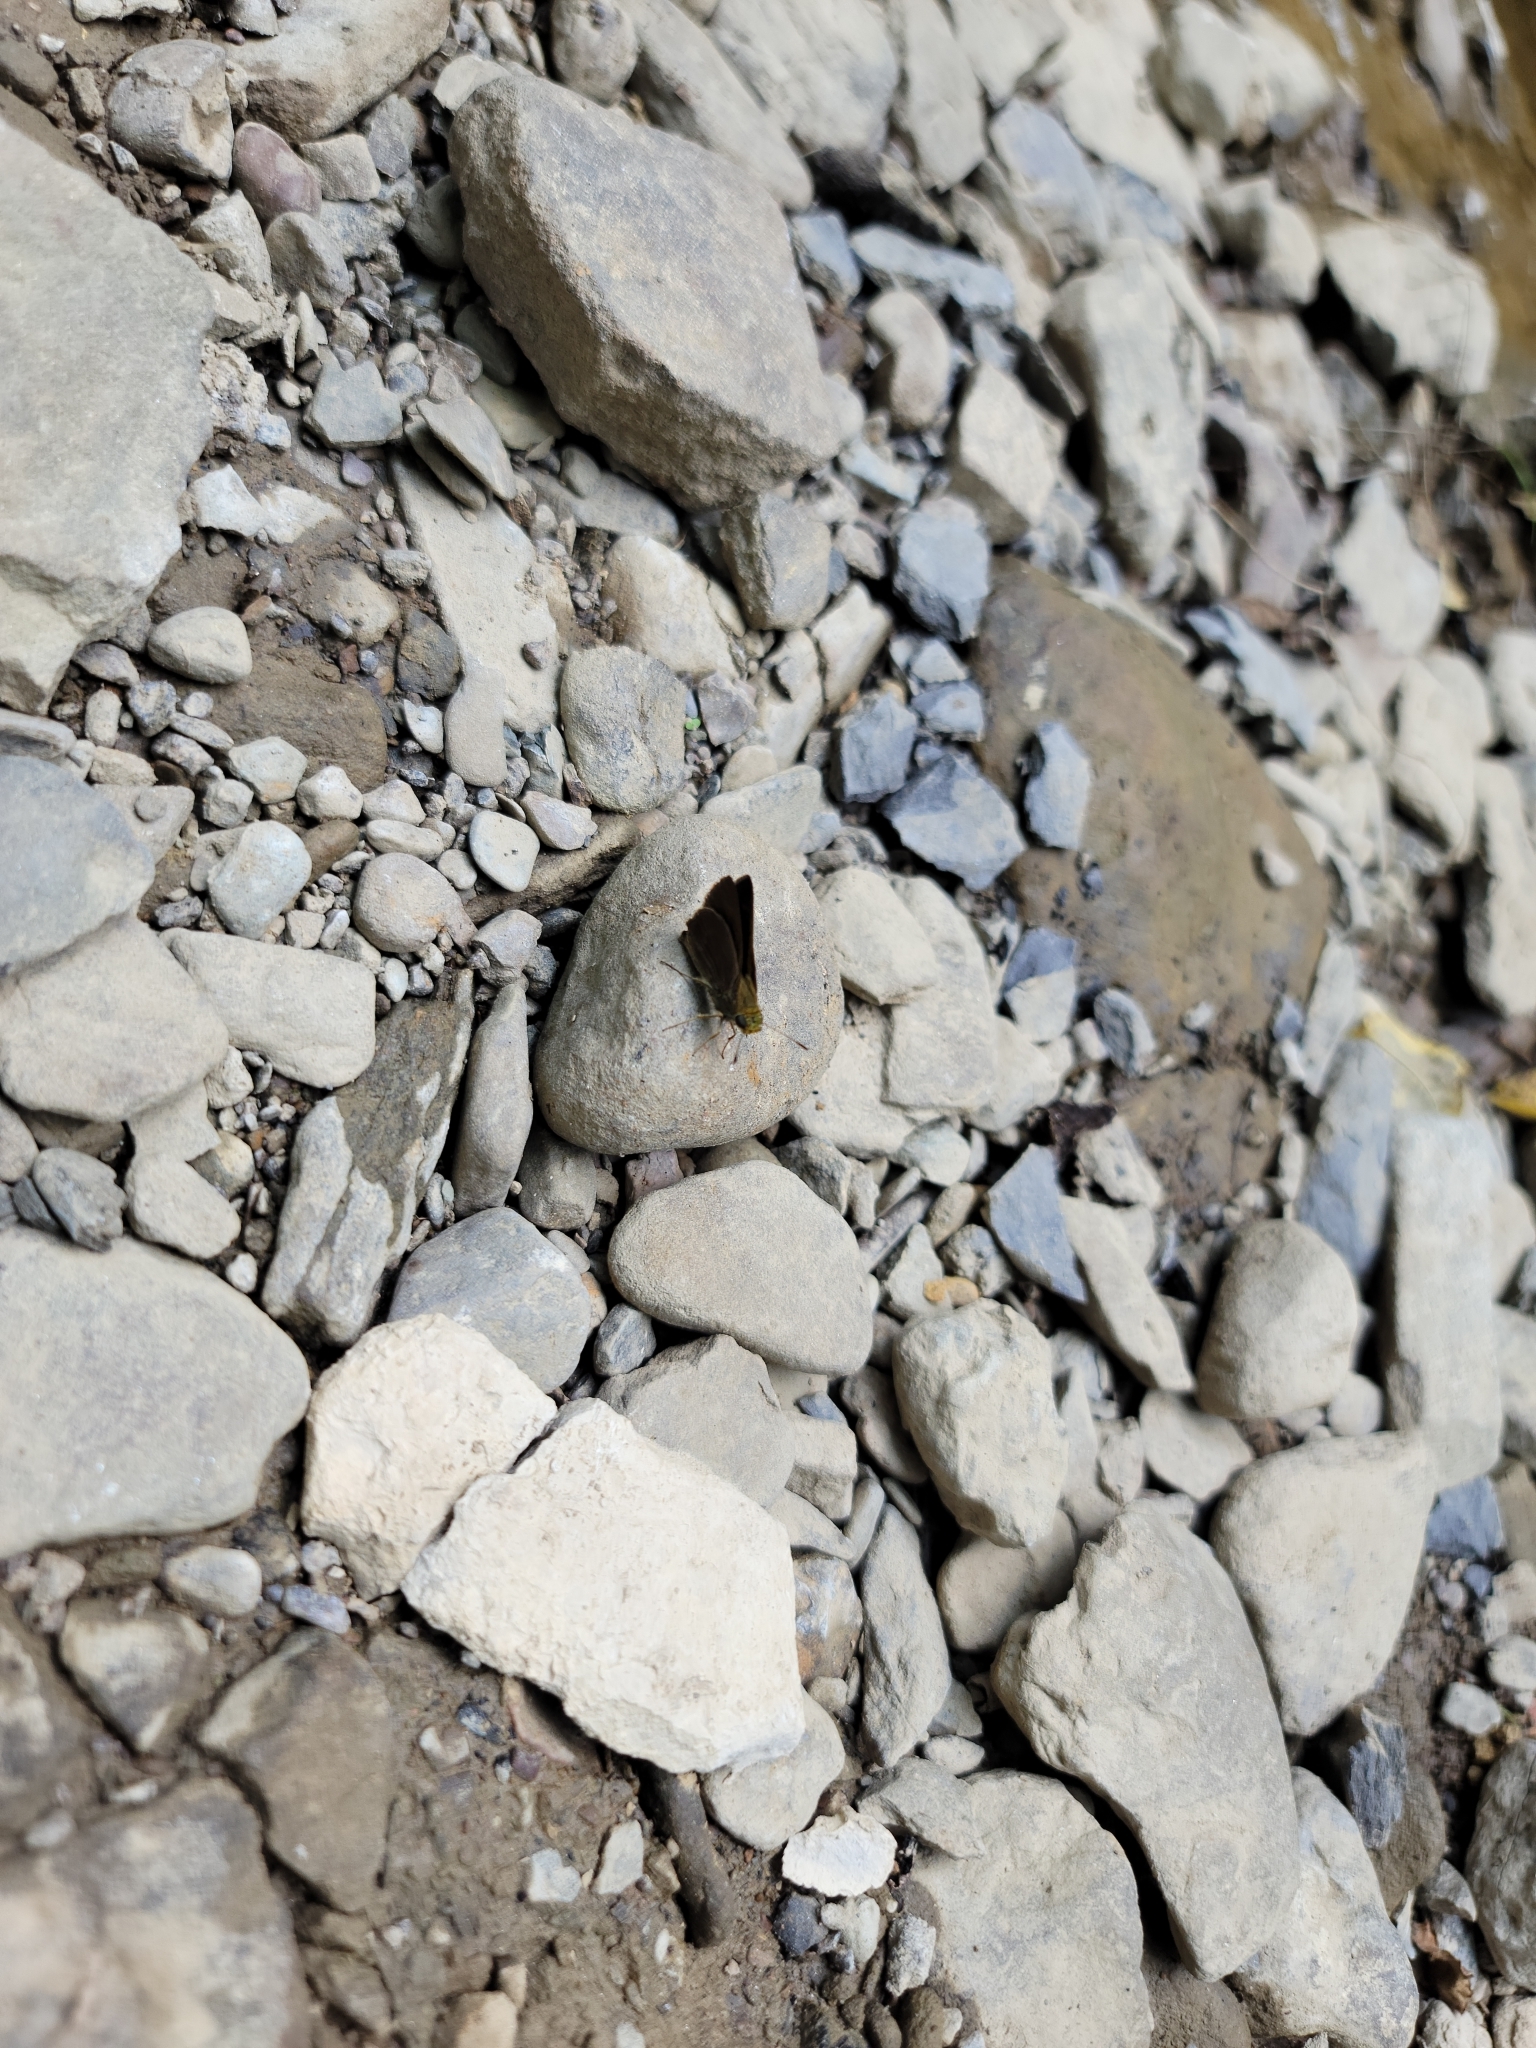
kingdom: Animalia
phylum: Arthropoda
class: Insecta
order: Lepidoptera
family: Hesperiidae
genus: Euphyes
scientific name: Euphyes vestris
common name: Dun skipper
